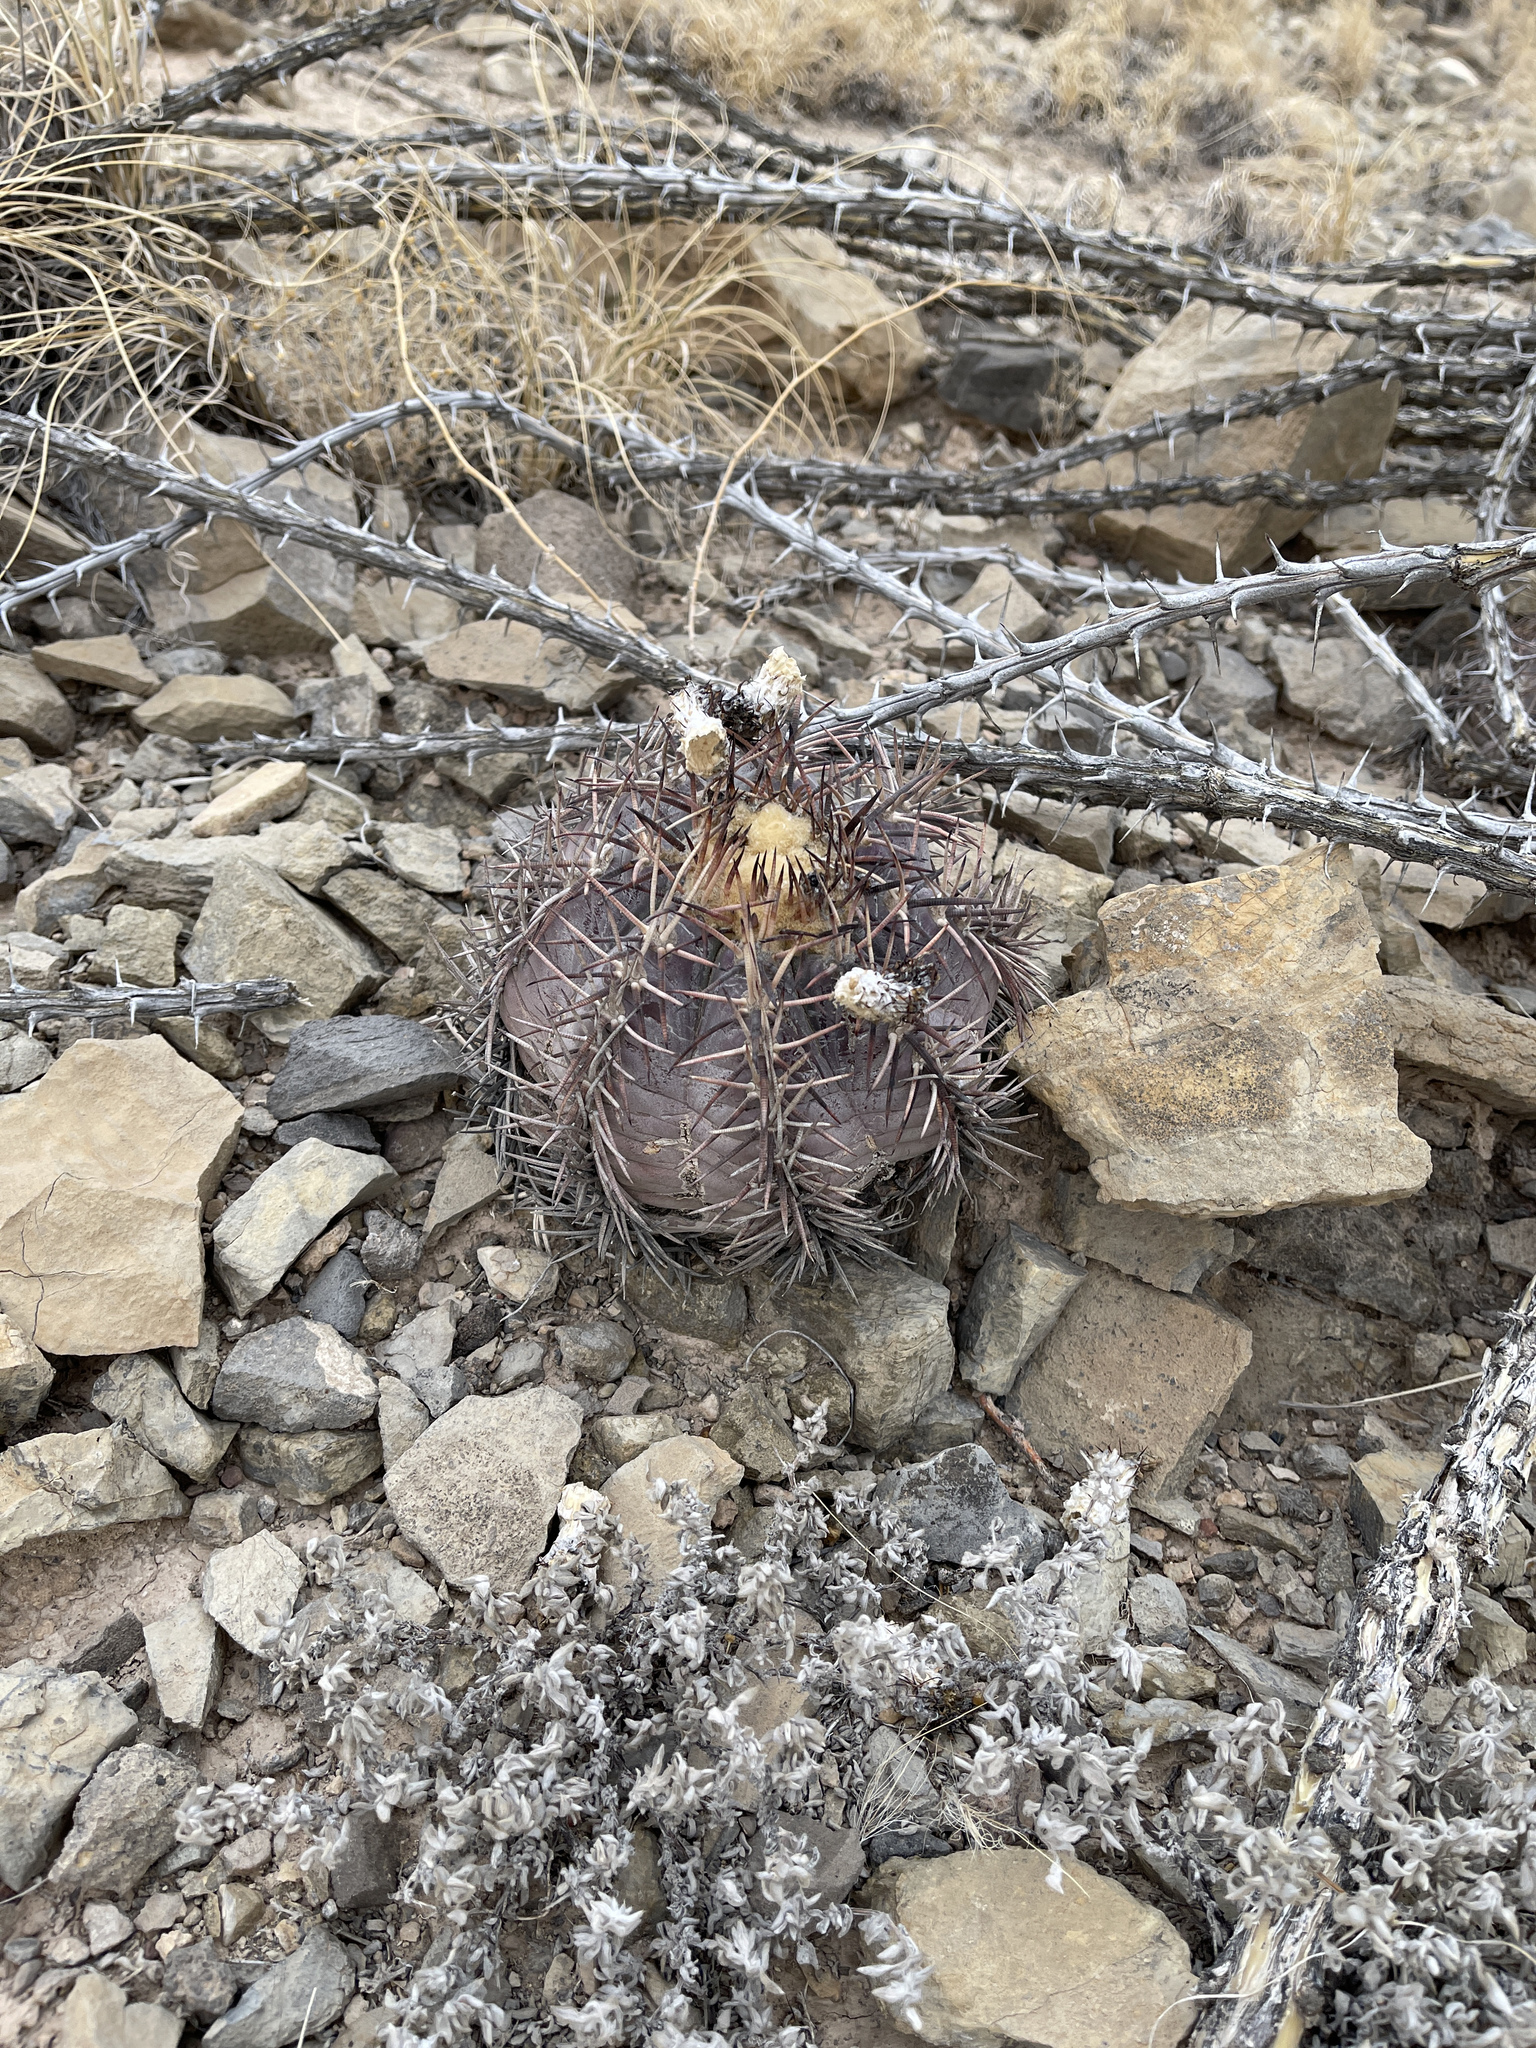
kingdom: Plantae
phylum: Tracheophyta
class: Magnoliopsida
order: Caryophyllales
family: Cactaceae
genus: Echinocactus
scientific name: Echinocactus horizonthalonius
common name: Devilshead
